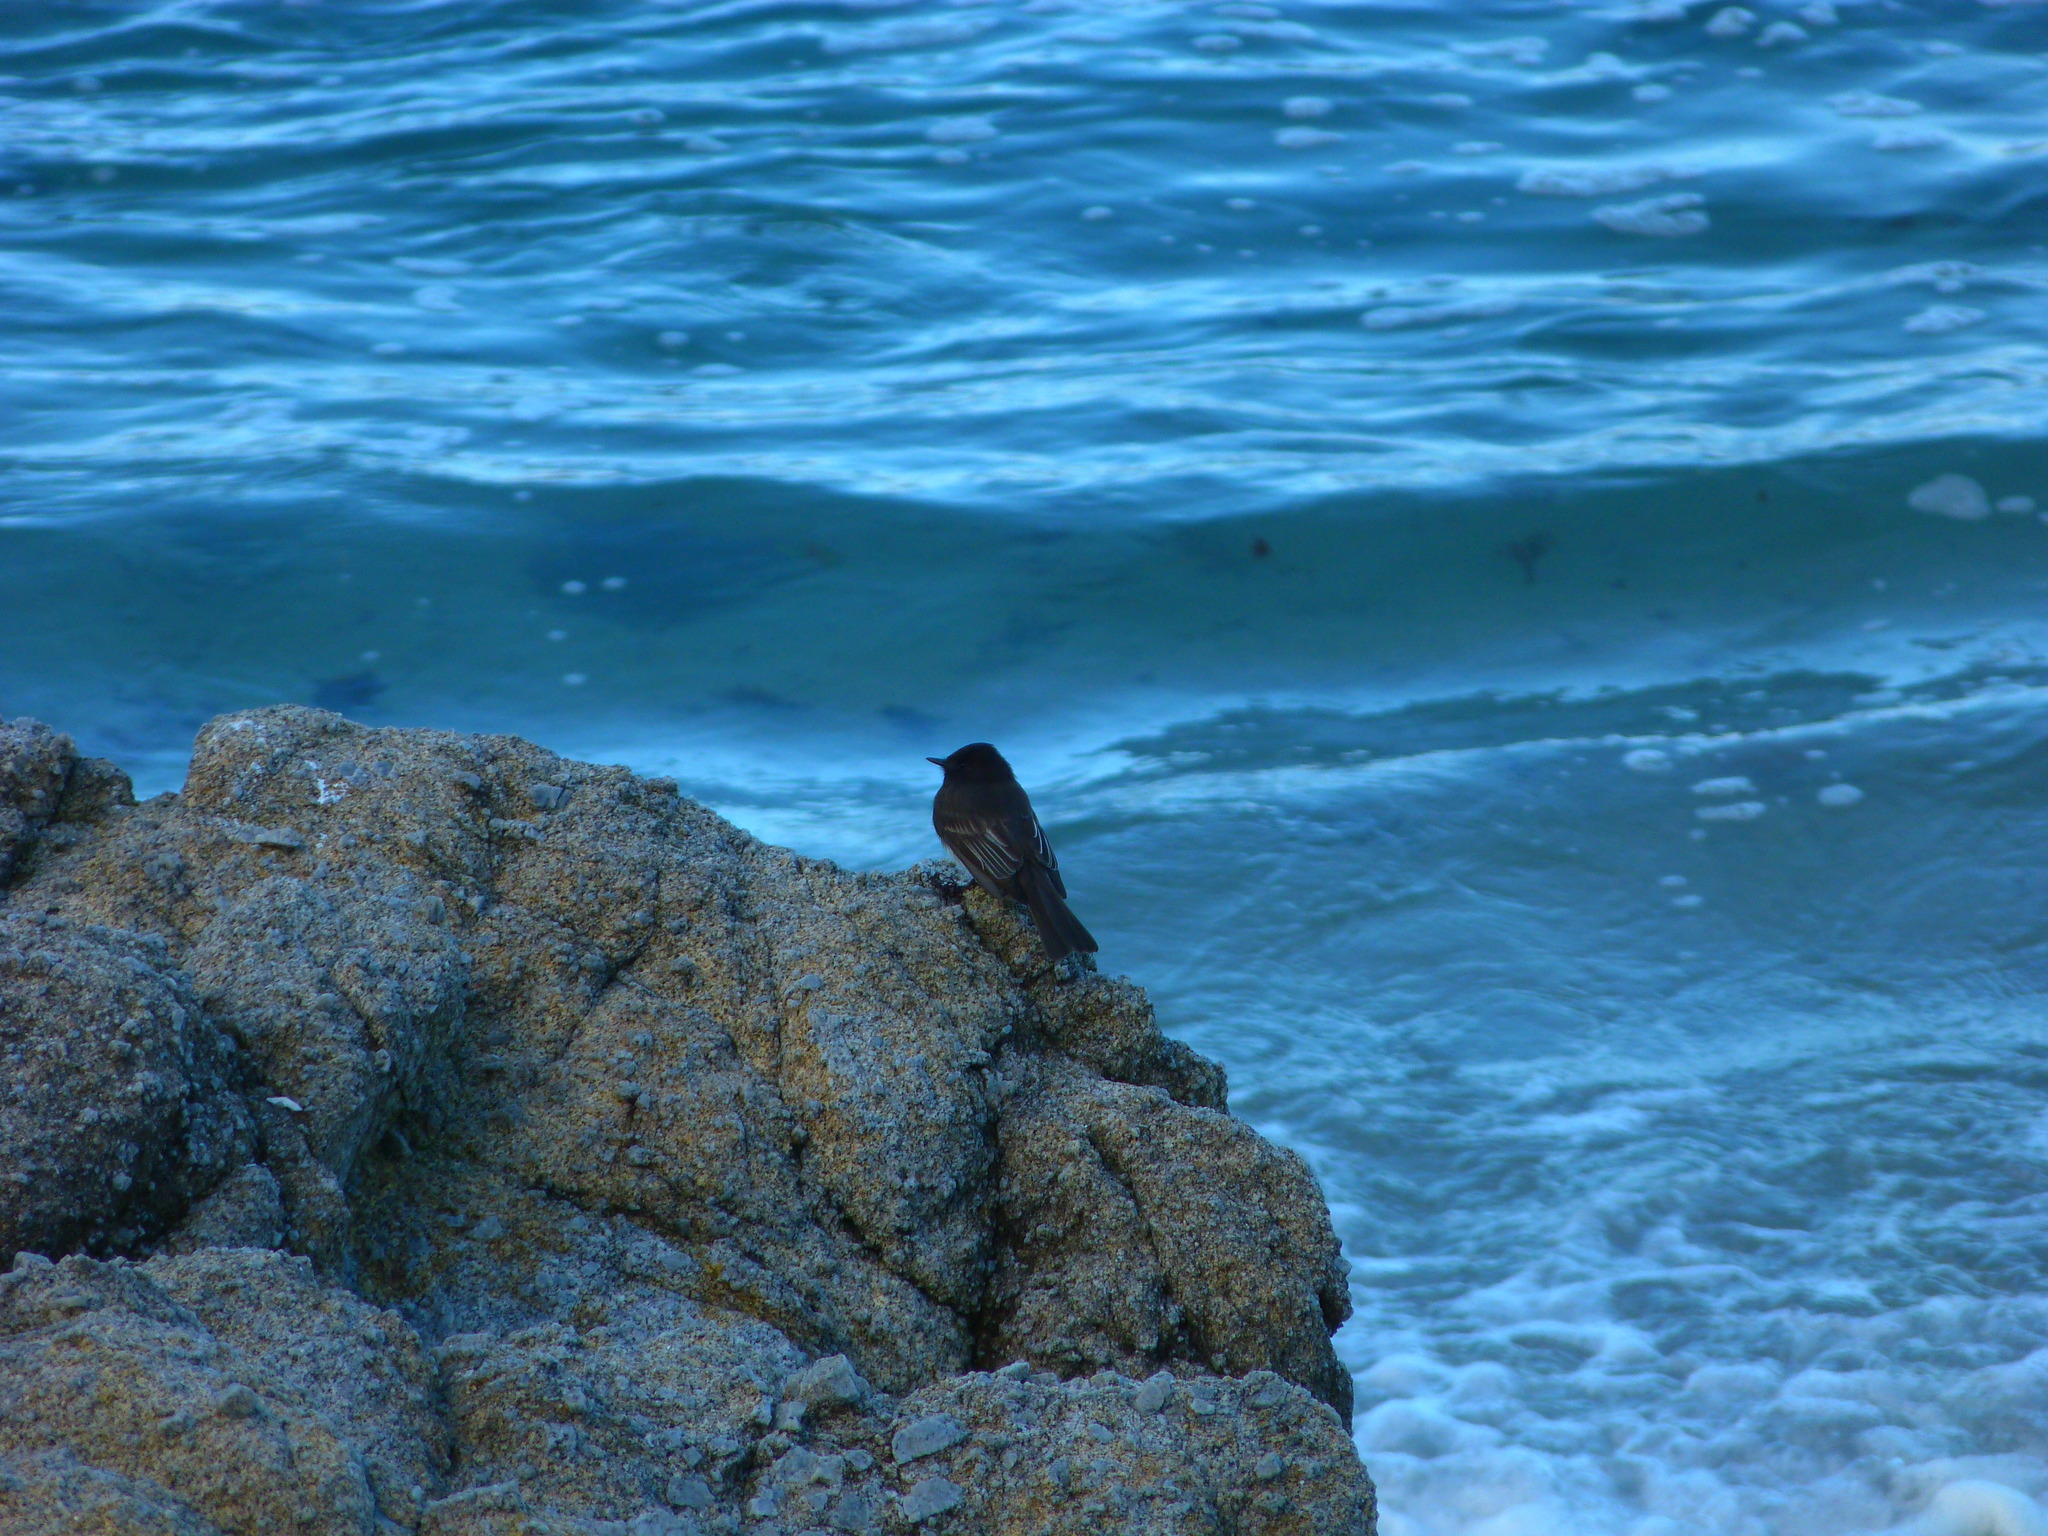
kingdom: Animalia
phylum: Chordata
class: Aves
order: Passeriformes
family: Tyrannidae
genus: Sayornis
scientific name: Sayornis nigricans
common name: Black phoebe
